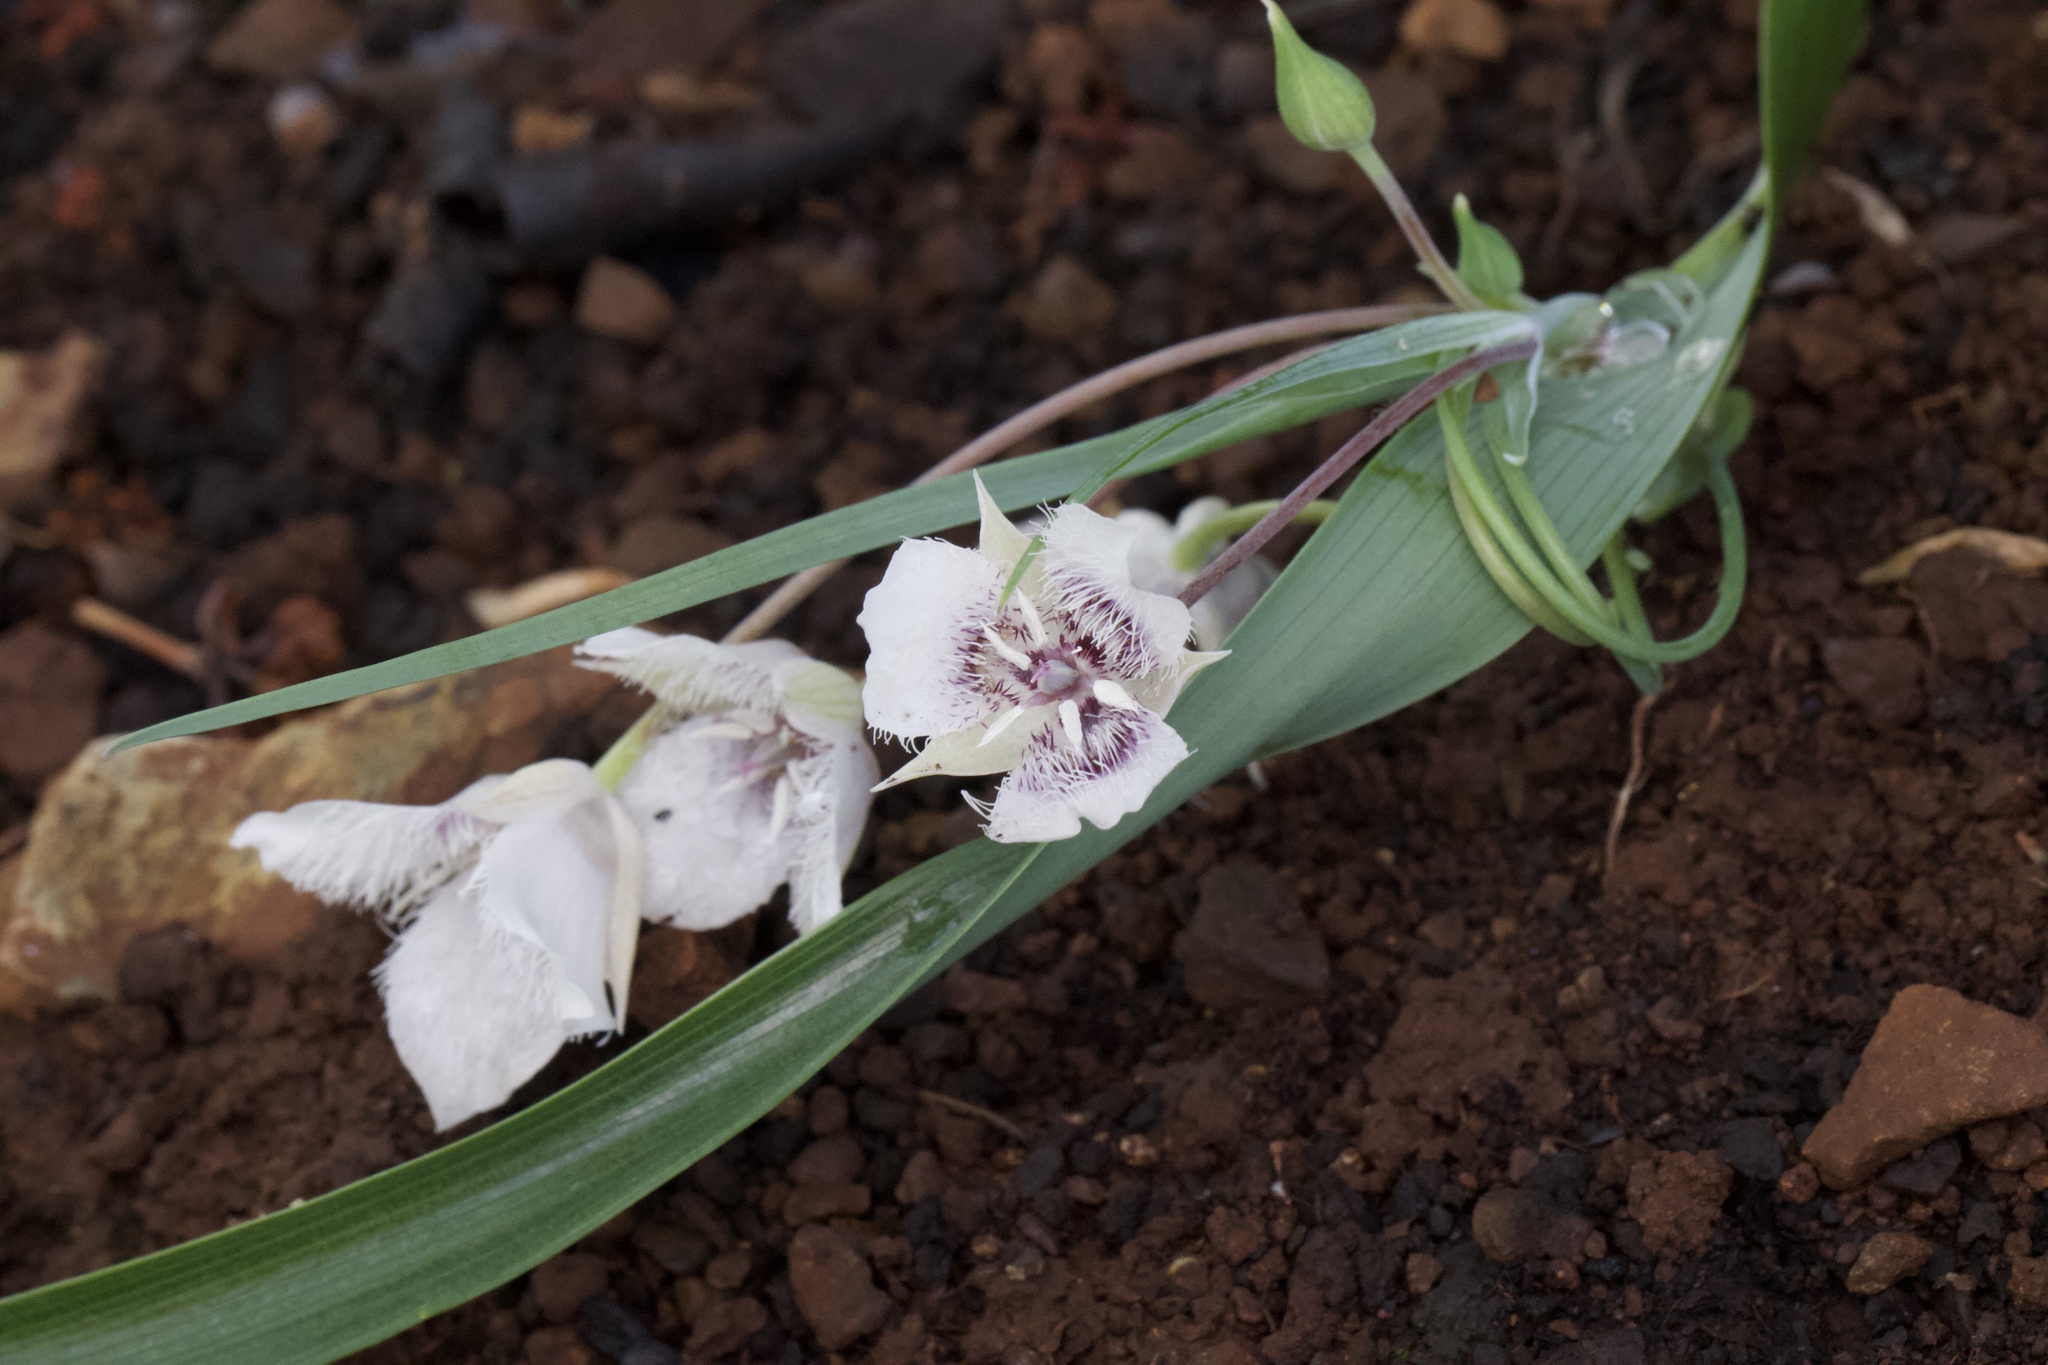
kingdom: Plantae
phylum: Tracheophyta
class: Liliopsida
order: Liliales
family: Liliaceae
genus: Calochortus
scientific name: Calochortus tolmiei
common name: Pussy-ears
